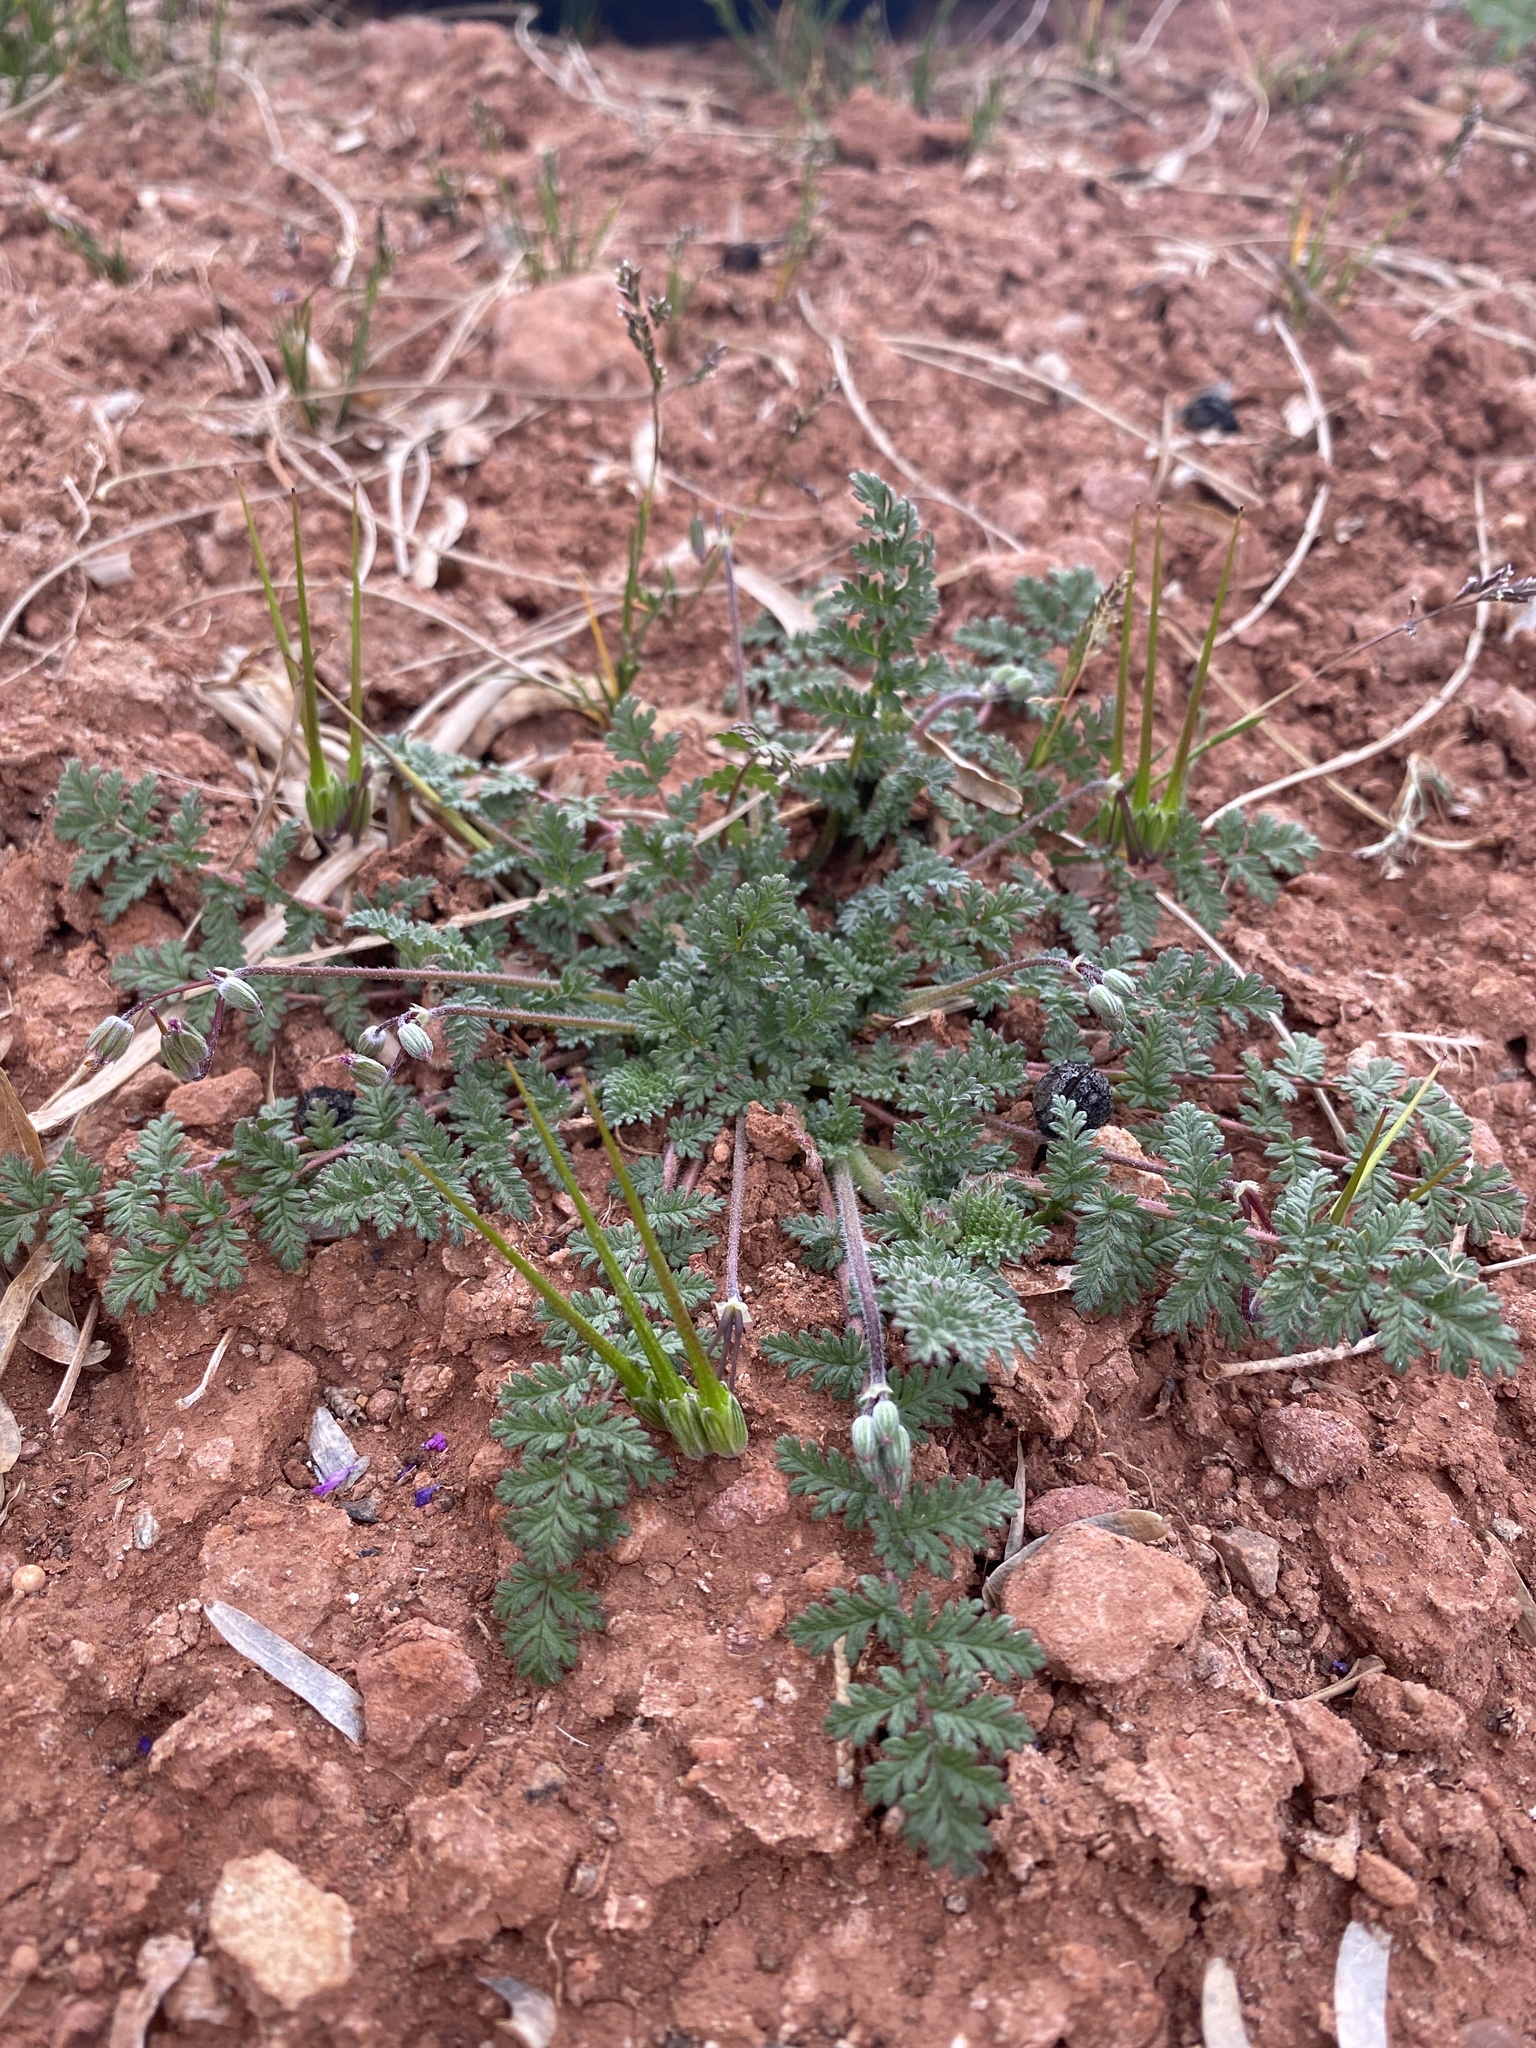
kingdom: Plantae
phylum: Tracheophyta
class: Magnoliopsida
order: Geraniales
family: Geraniaceae
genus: Erodium
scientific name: Erodium cicutarium
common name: Common stork's-bill
